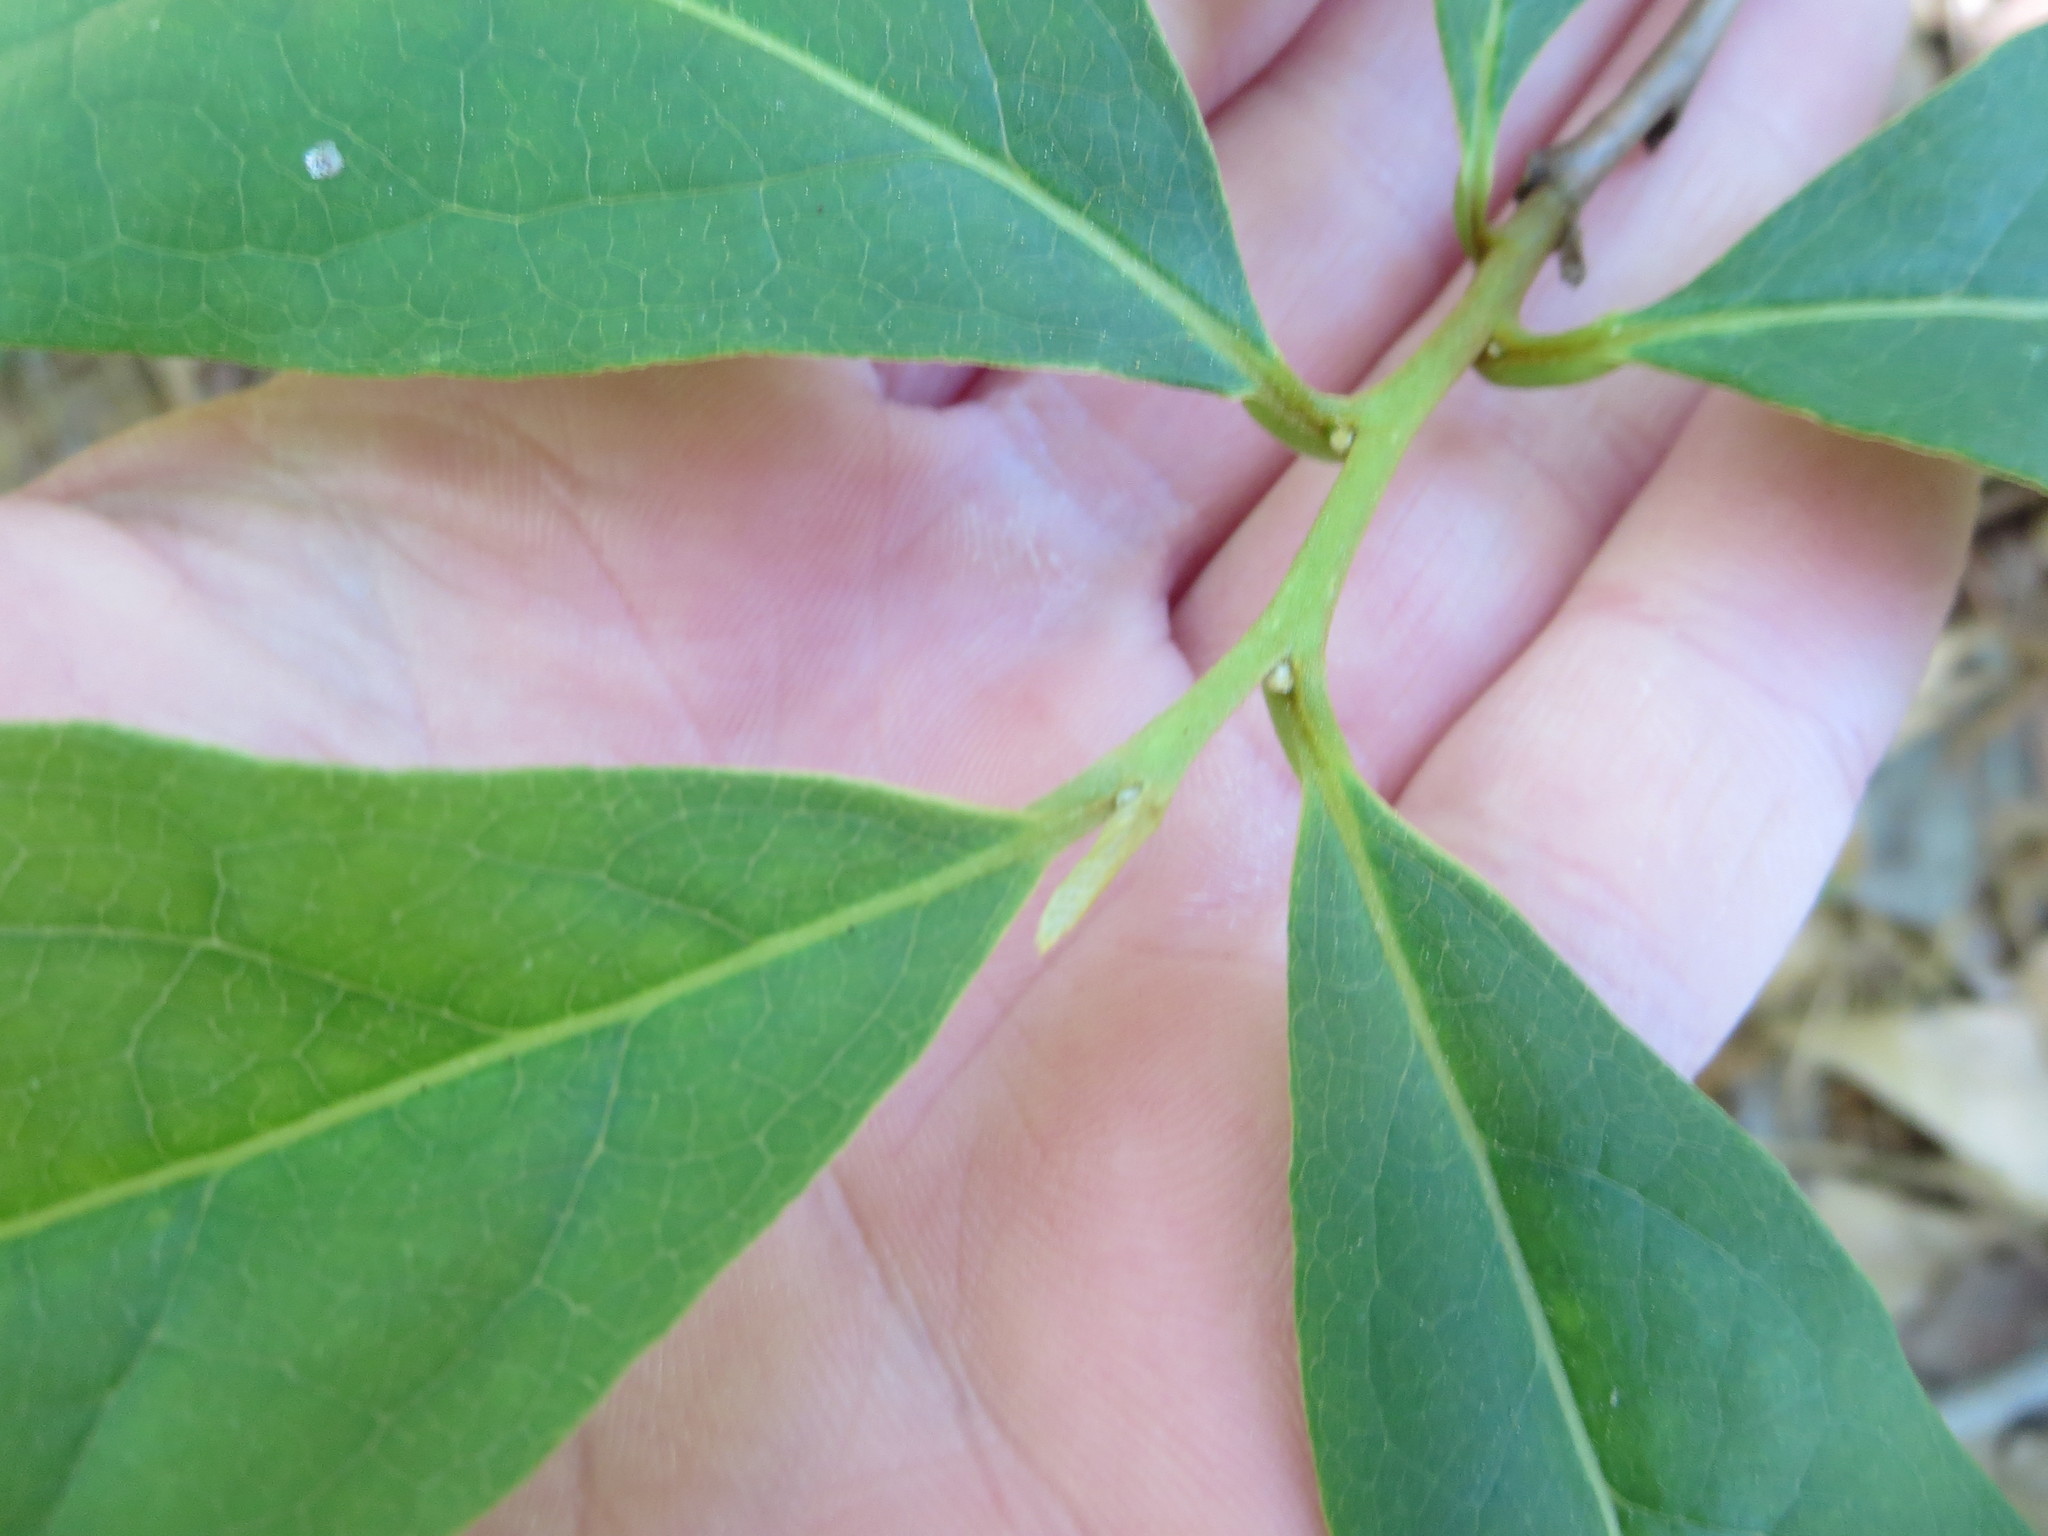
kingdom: Plantae
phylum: Tracheophyta
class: Magnoliopsida
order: Magnoliales
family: Annonaceae
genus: Asimina
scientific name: Asimina parviflora
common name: Dwarf pawpaw
